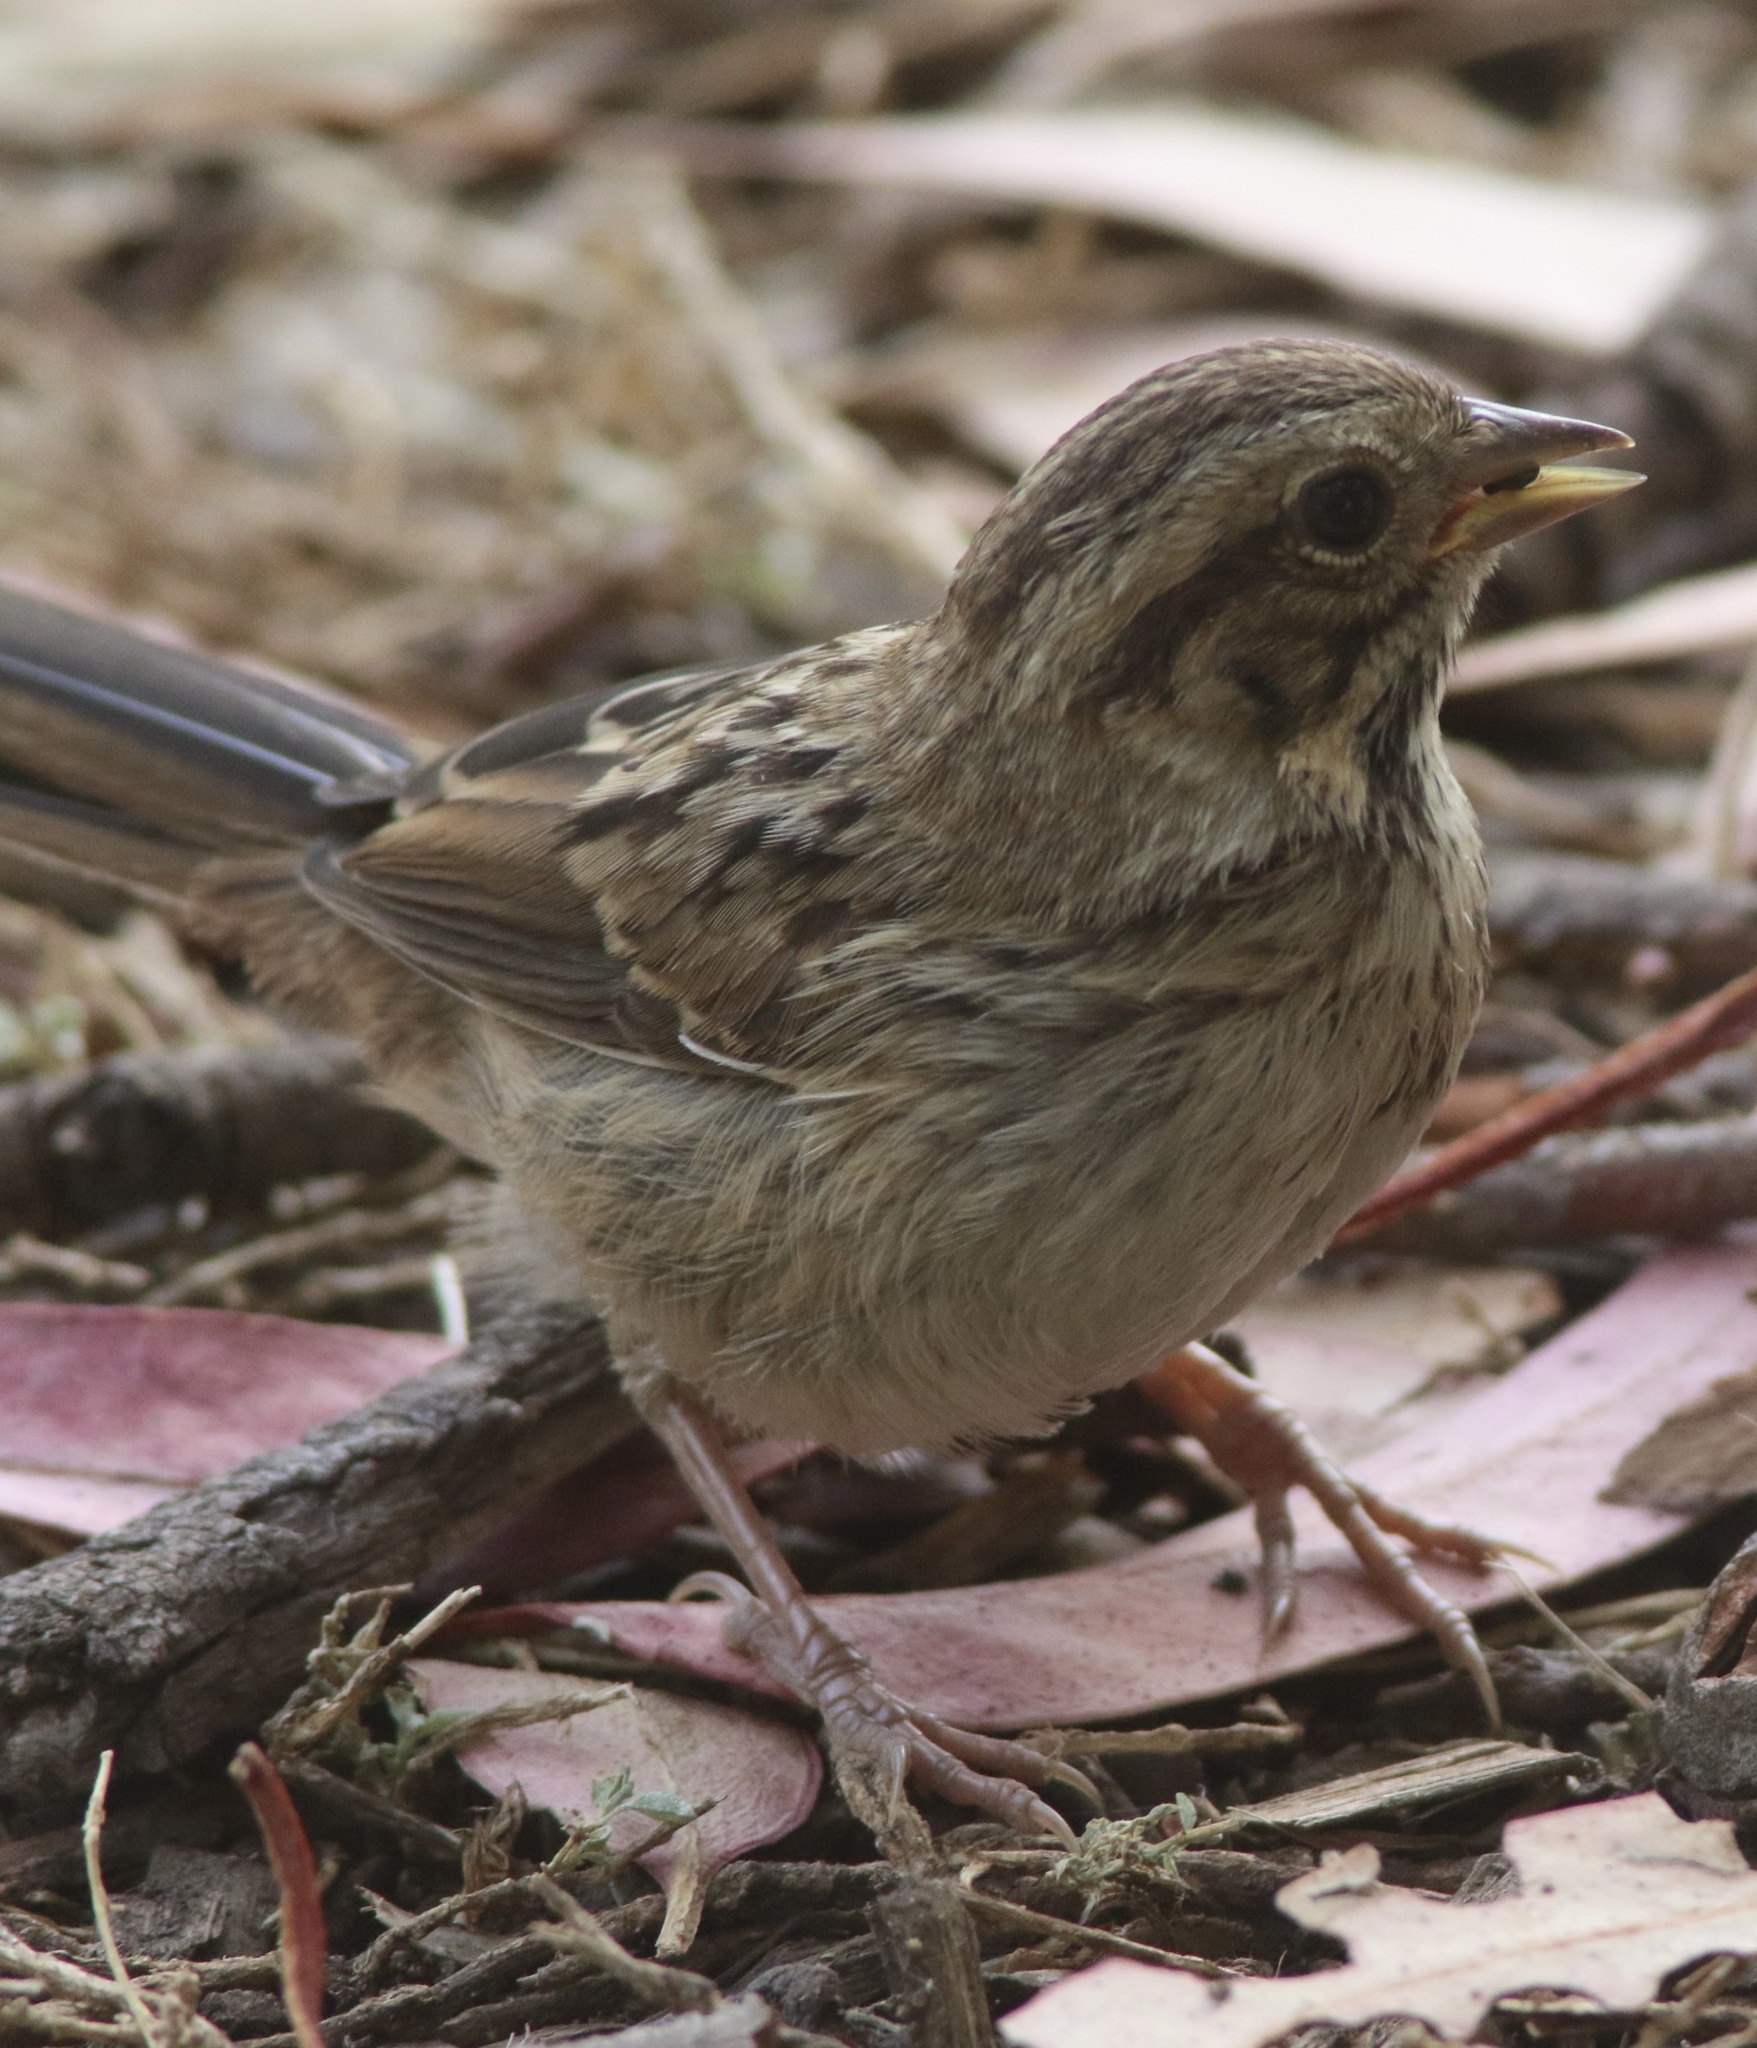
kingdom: Animalia
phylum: Chordata
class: Aves
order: Passeriformes
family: Passerellidae
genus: Melospiza
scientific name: Melospiza melodia
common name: Song sparrow
